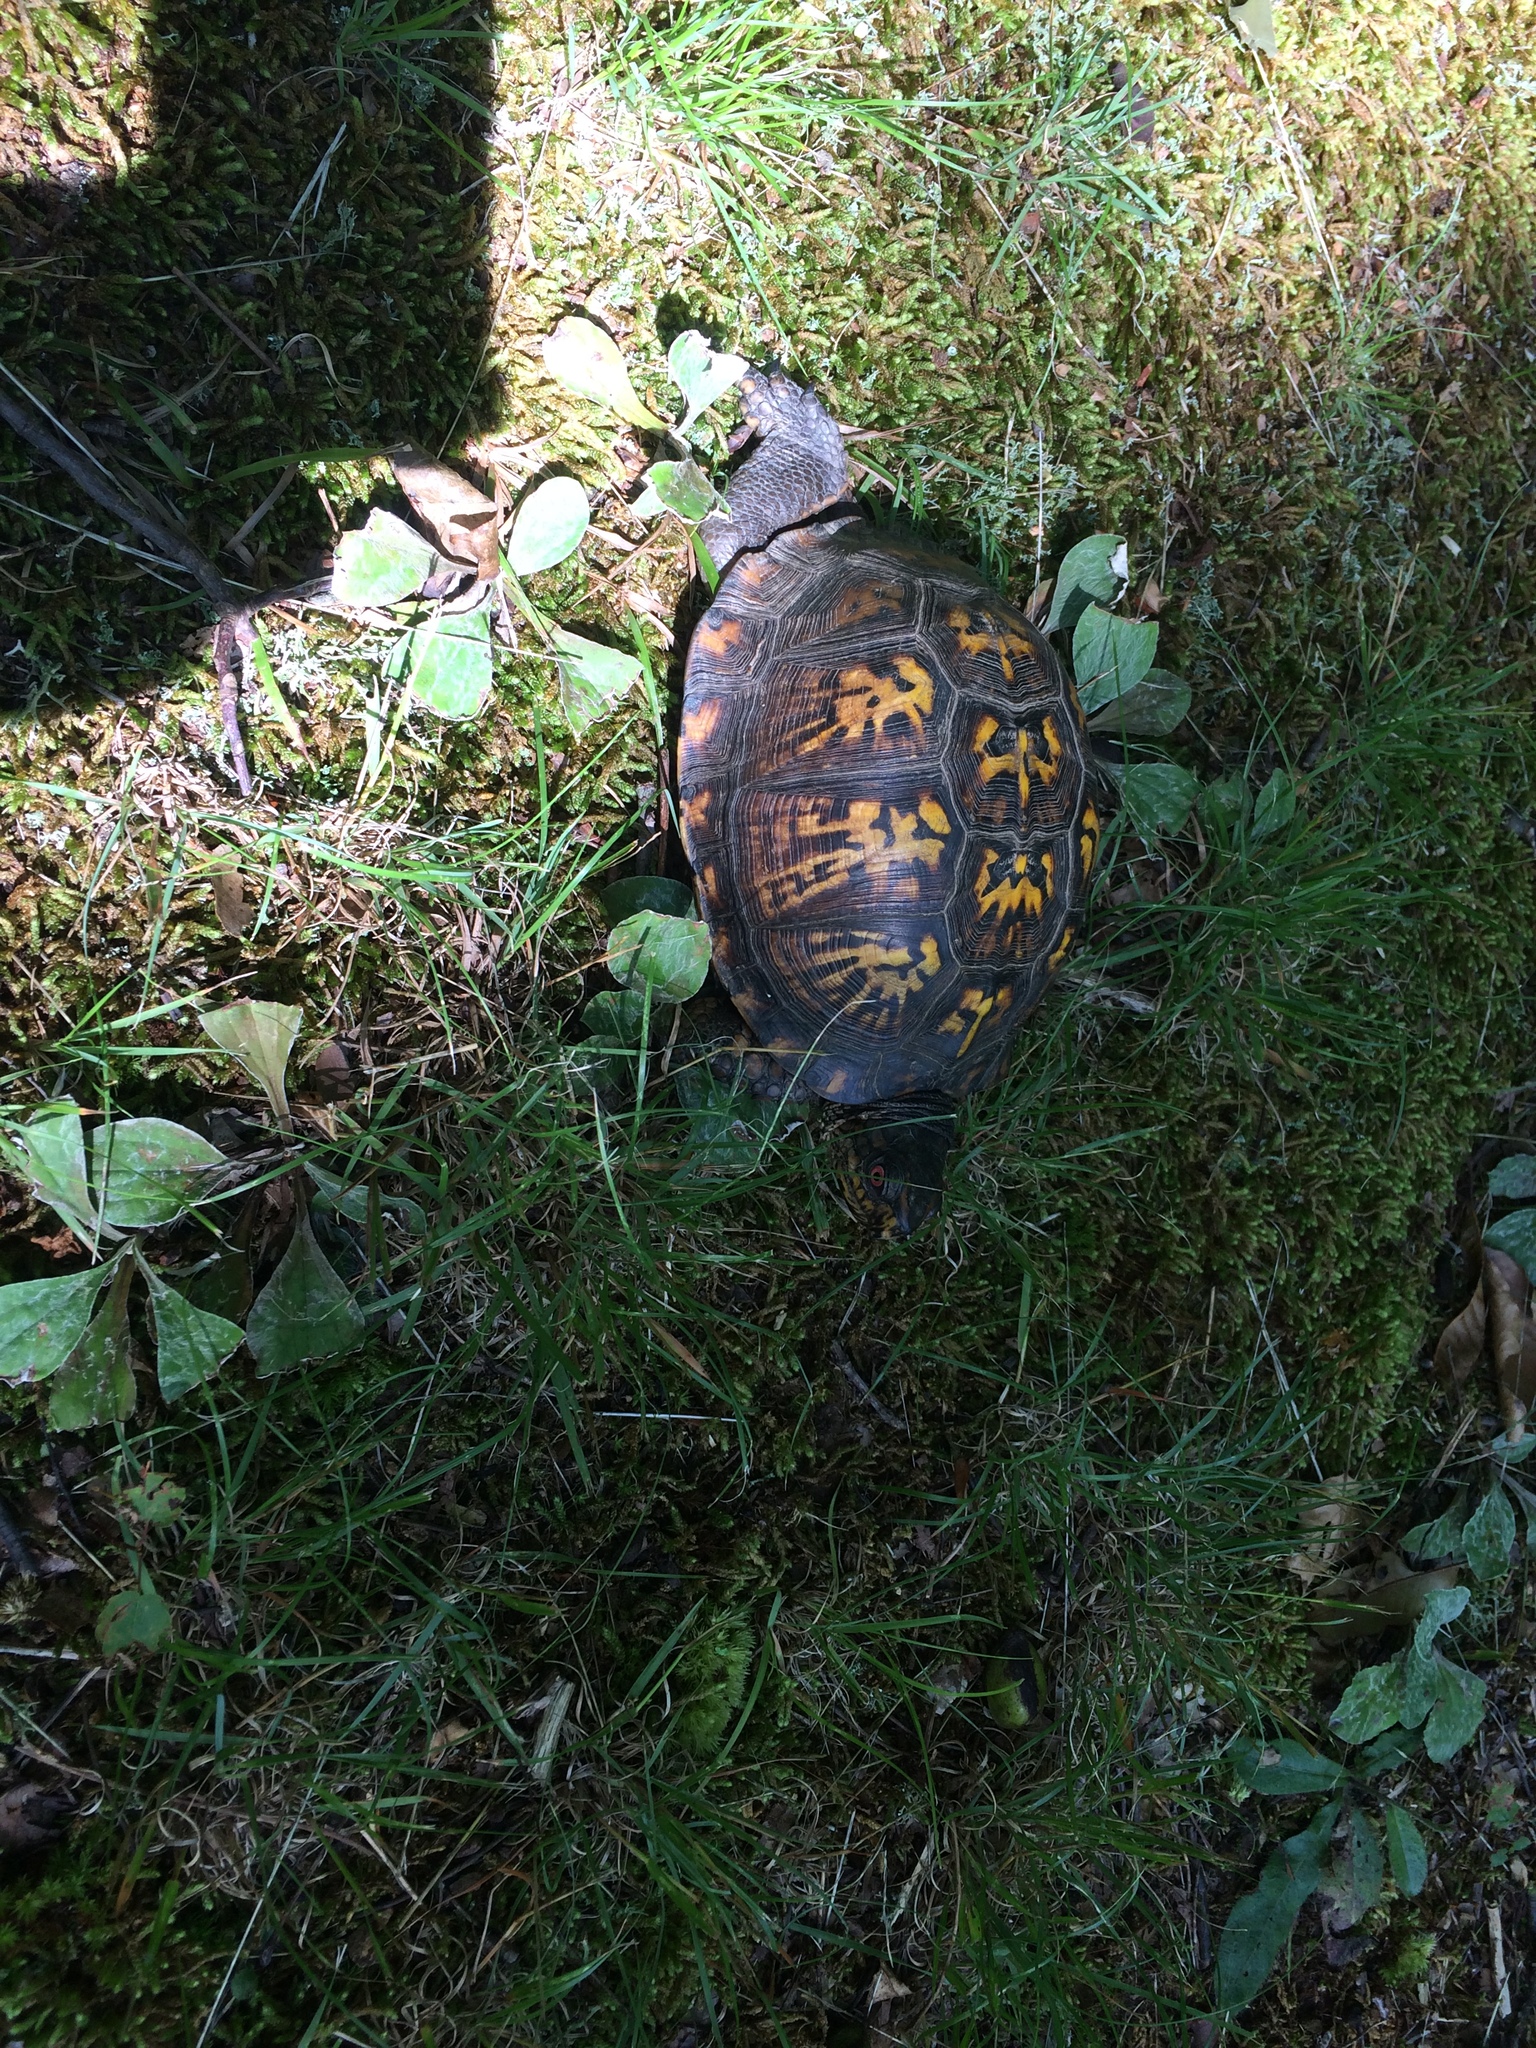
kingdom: Animalia
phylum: Chordata
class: Testudines
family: Emydidae
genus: Terrapene
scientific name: Terrapene carolina
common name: Common box turtle
